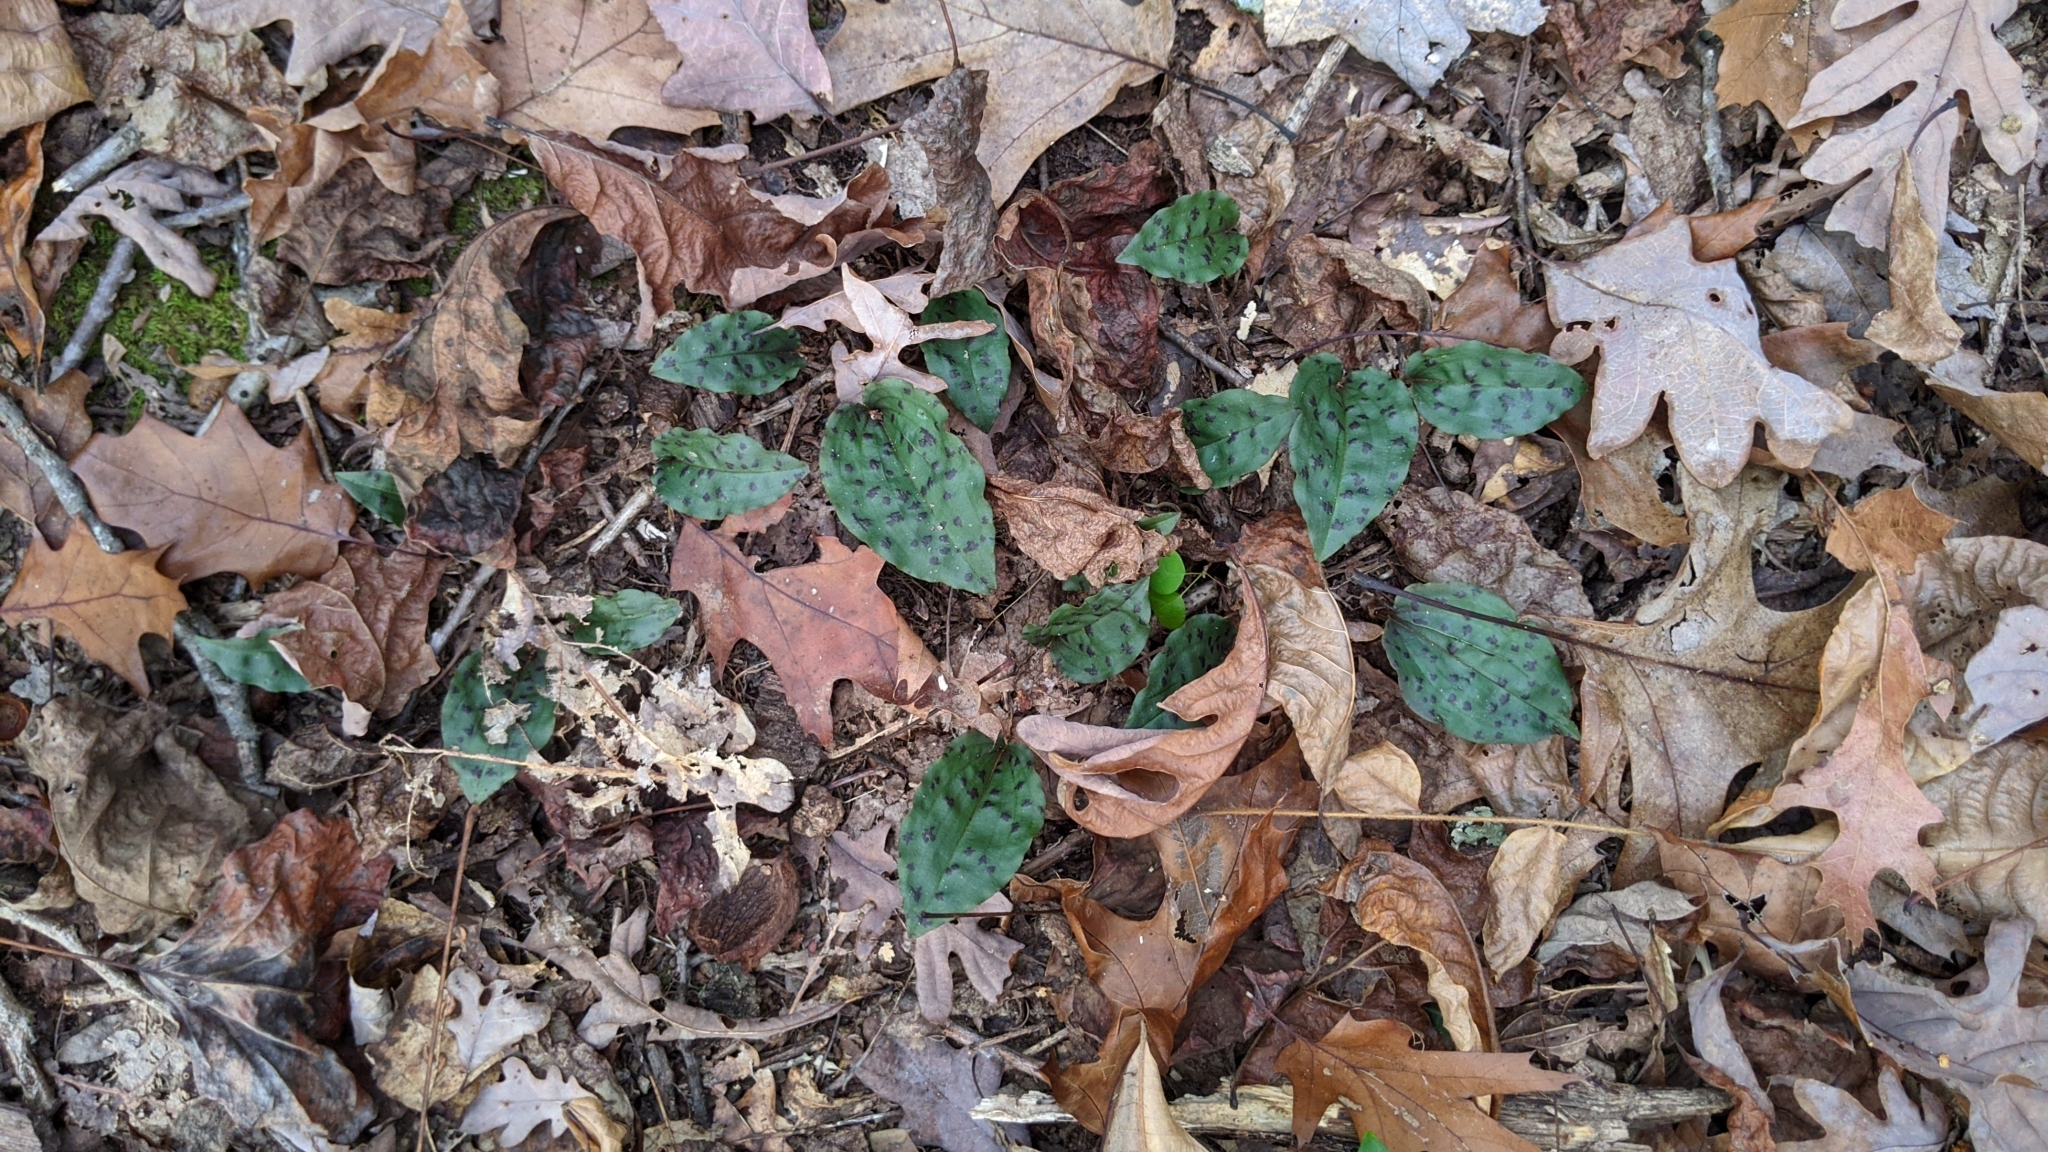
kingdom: Plantae
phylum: Tracheophyta
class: Liliopsida
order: Asparagales
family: Orchidaceae
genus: Tipularia
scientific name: Tipularia discolor
